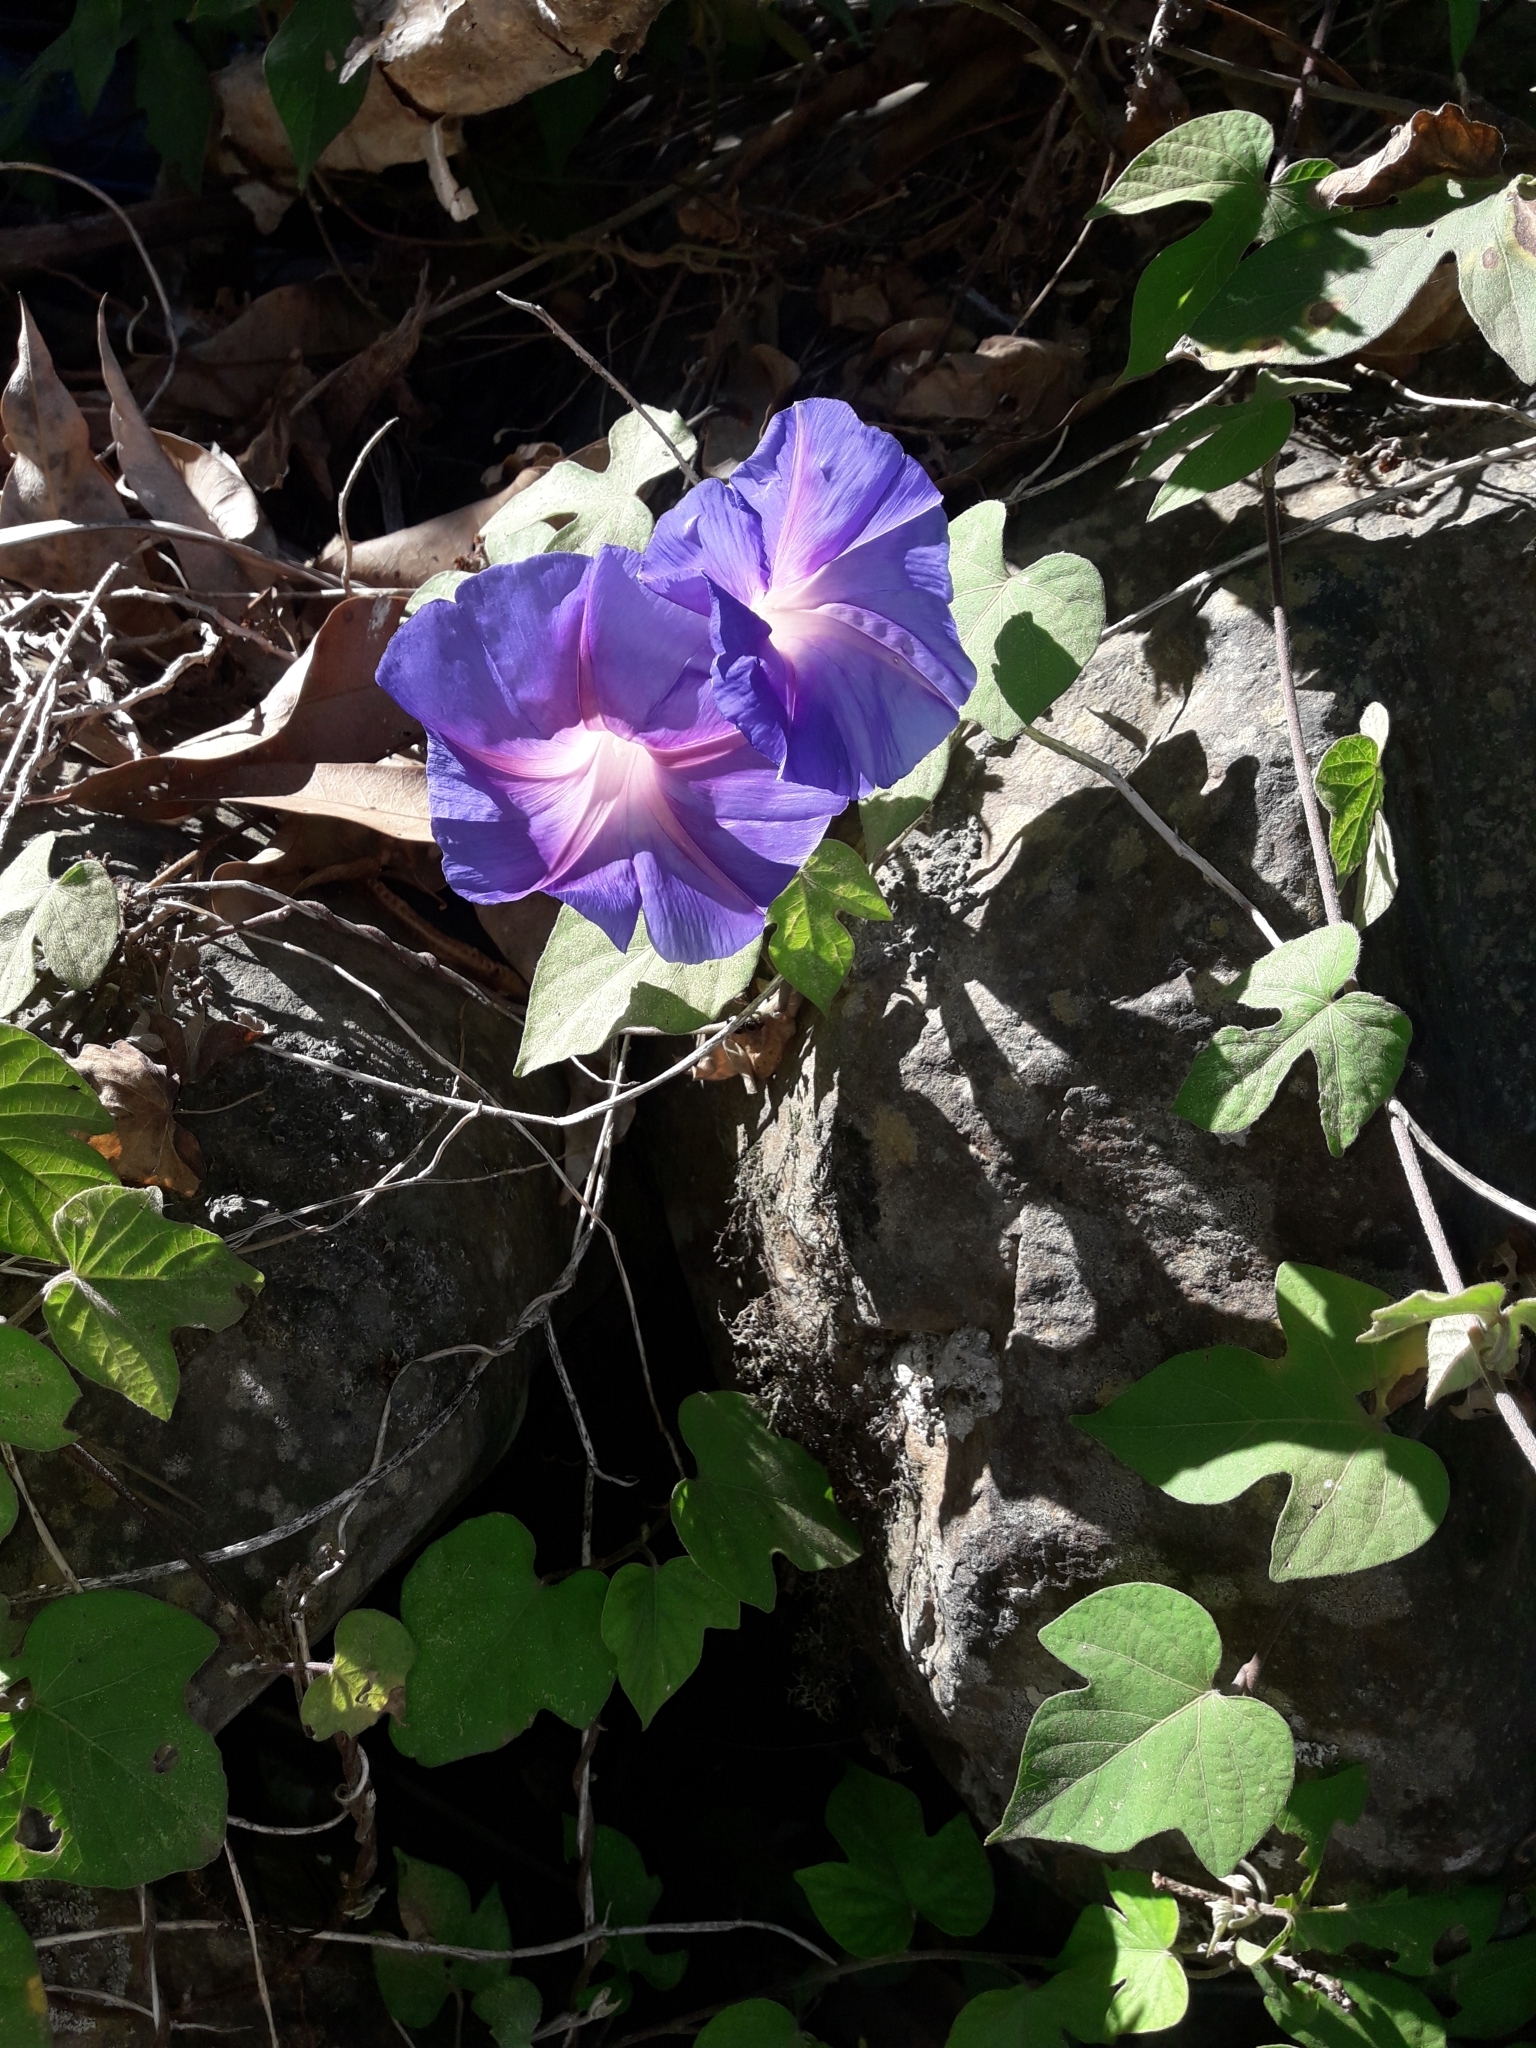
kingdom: Plantae
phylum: Tracheophyta
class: Magnoliopsida
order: Solanales
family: Convolvulaceae
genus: Ipomoea
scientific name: Ipomoea indica
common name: Blue dawnflower
